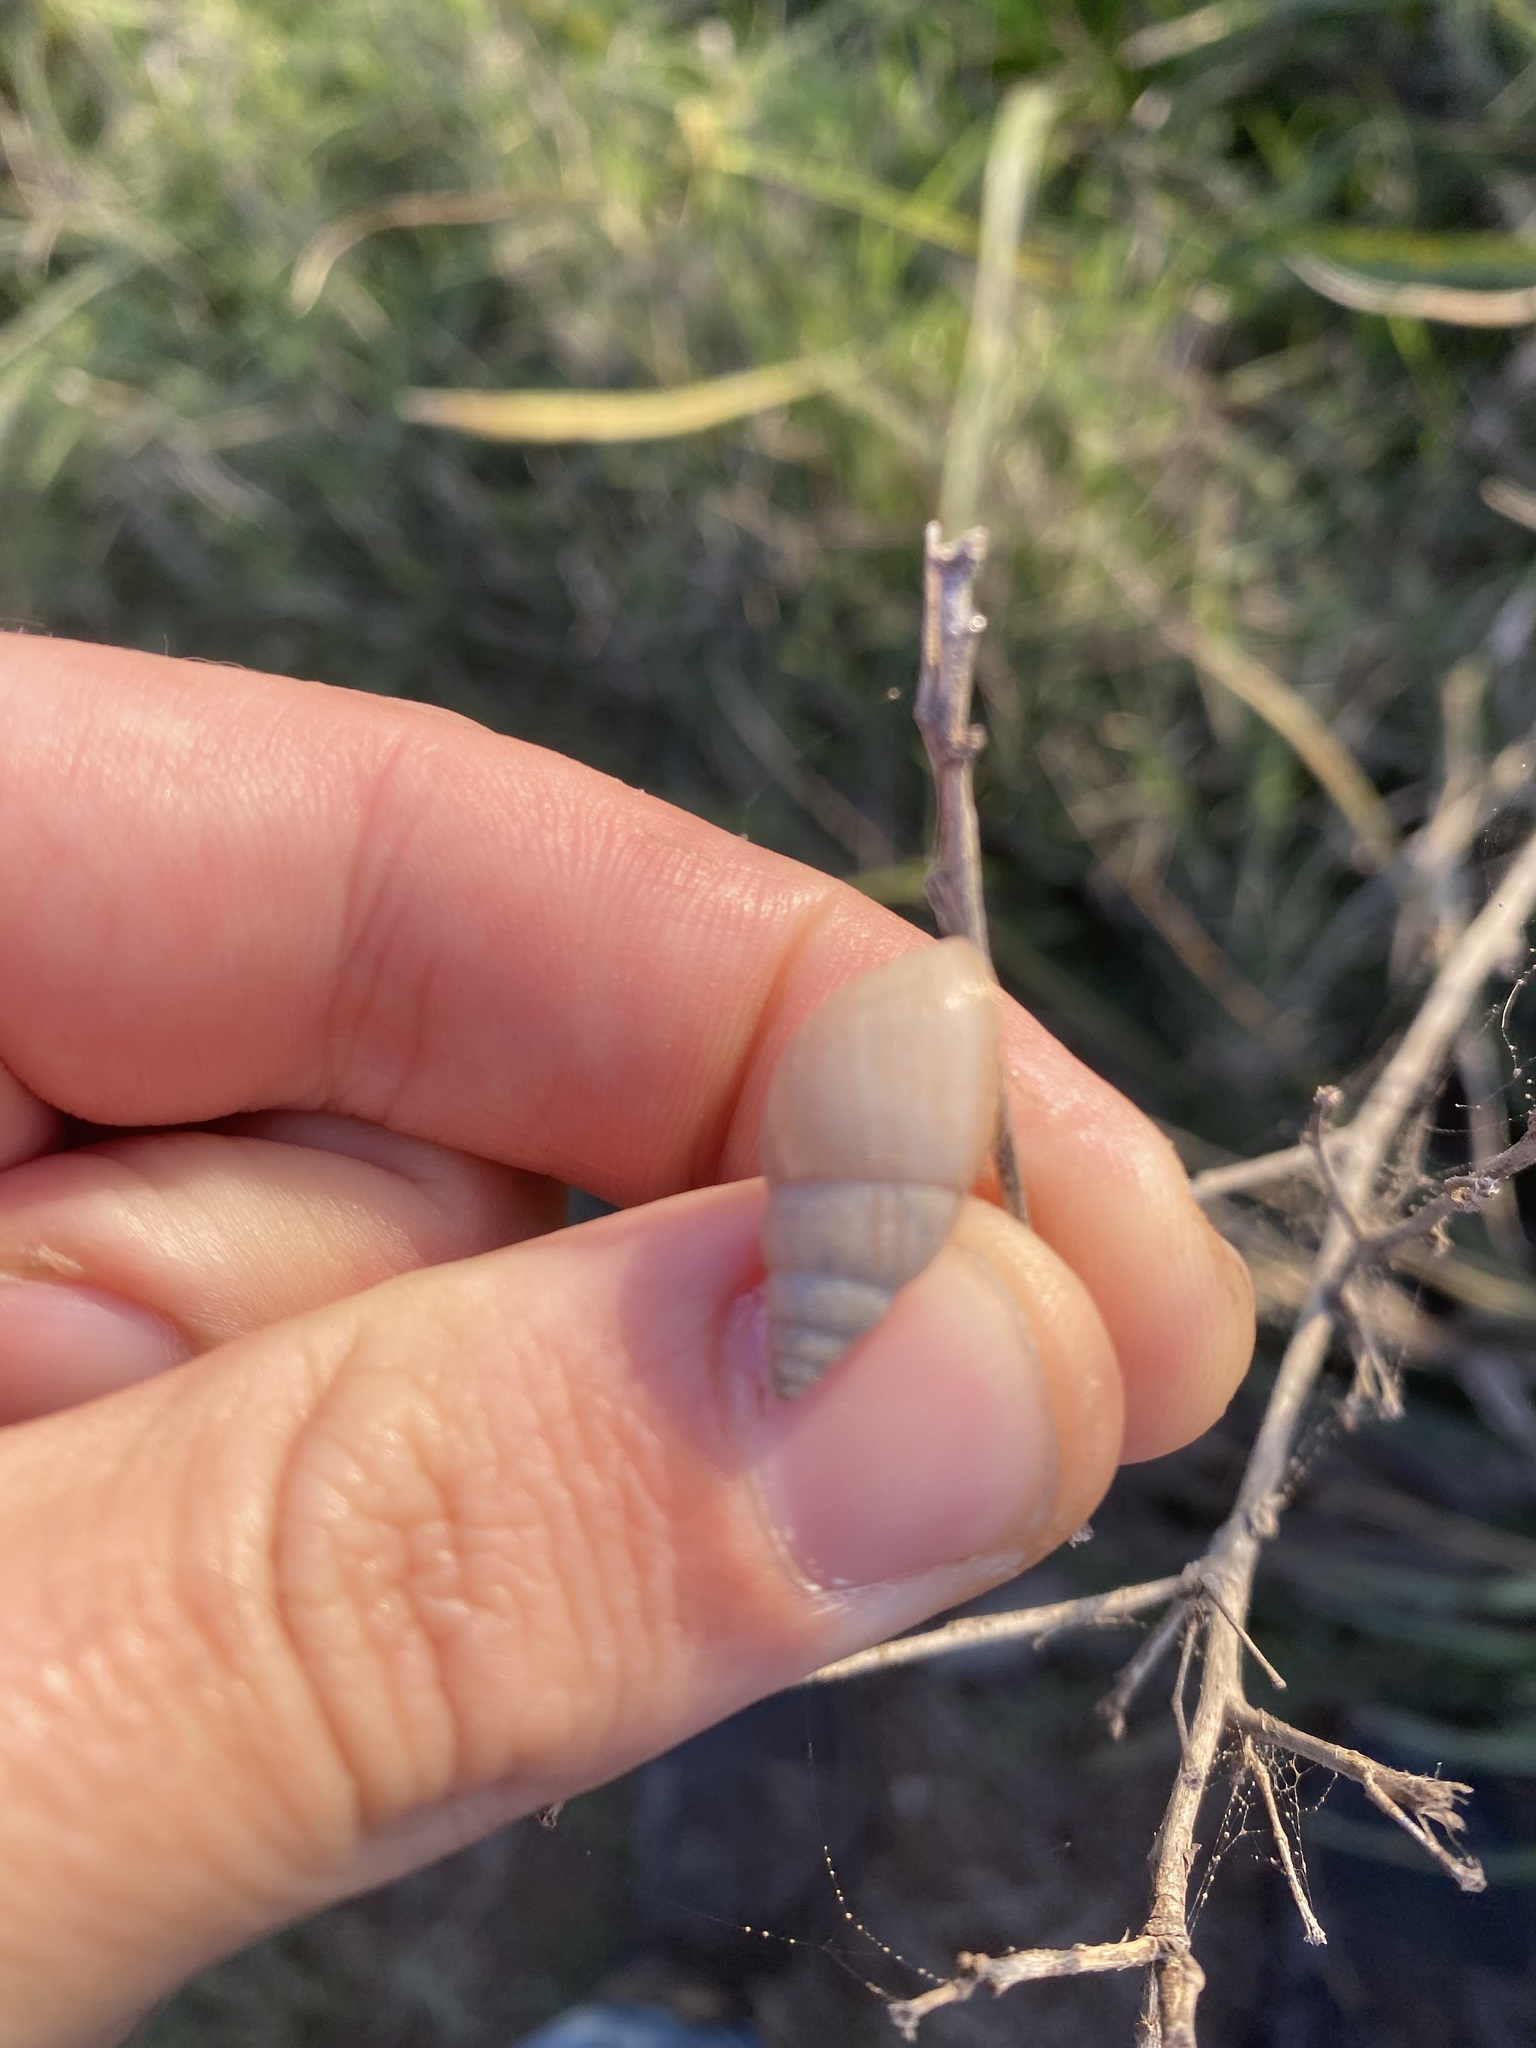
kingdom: Animalia
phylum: Mollusca
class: Gastropoda
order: Stylommatophora
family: Bulimulidae
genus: Bulimulus
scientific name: Bulimulus bonariensis
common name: Snail
